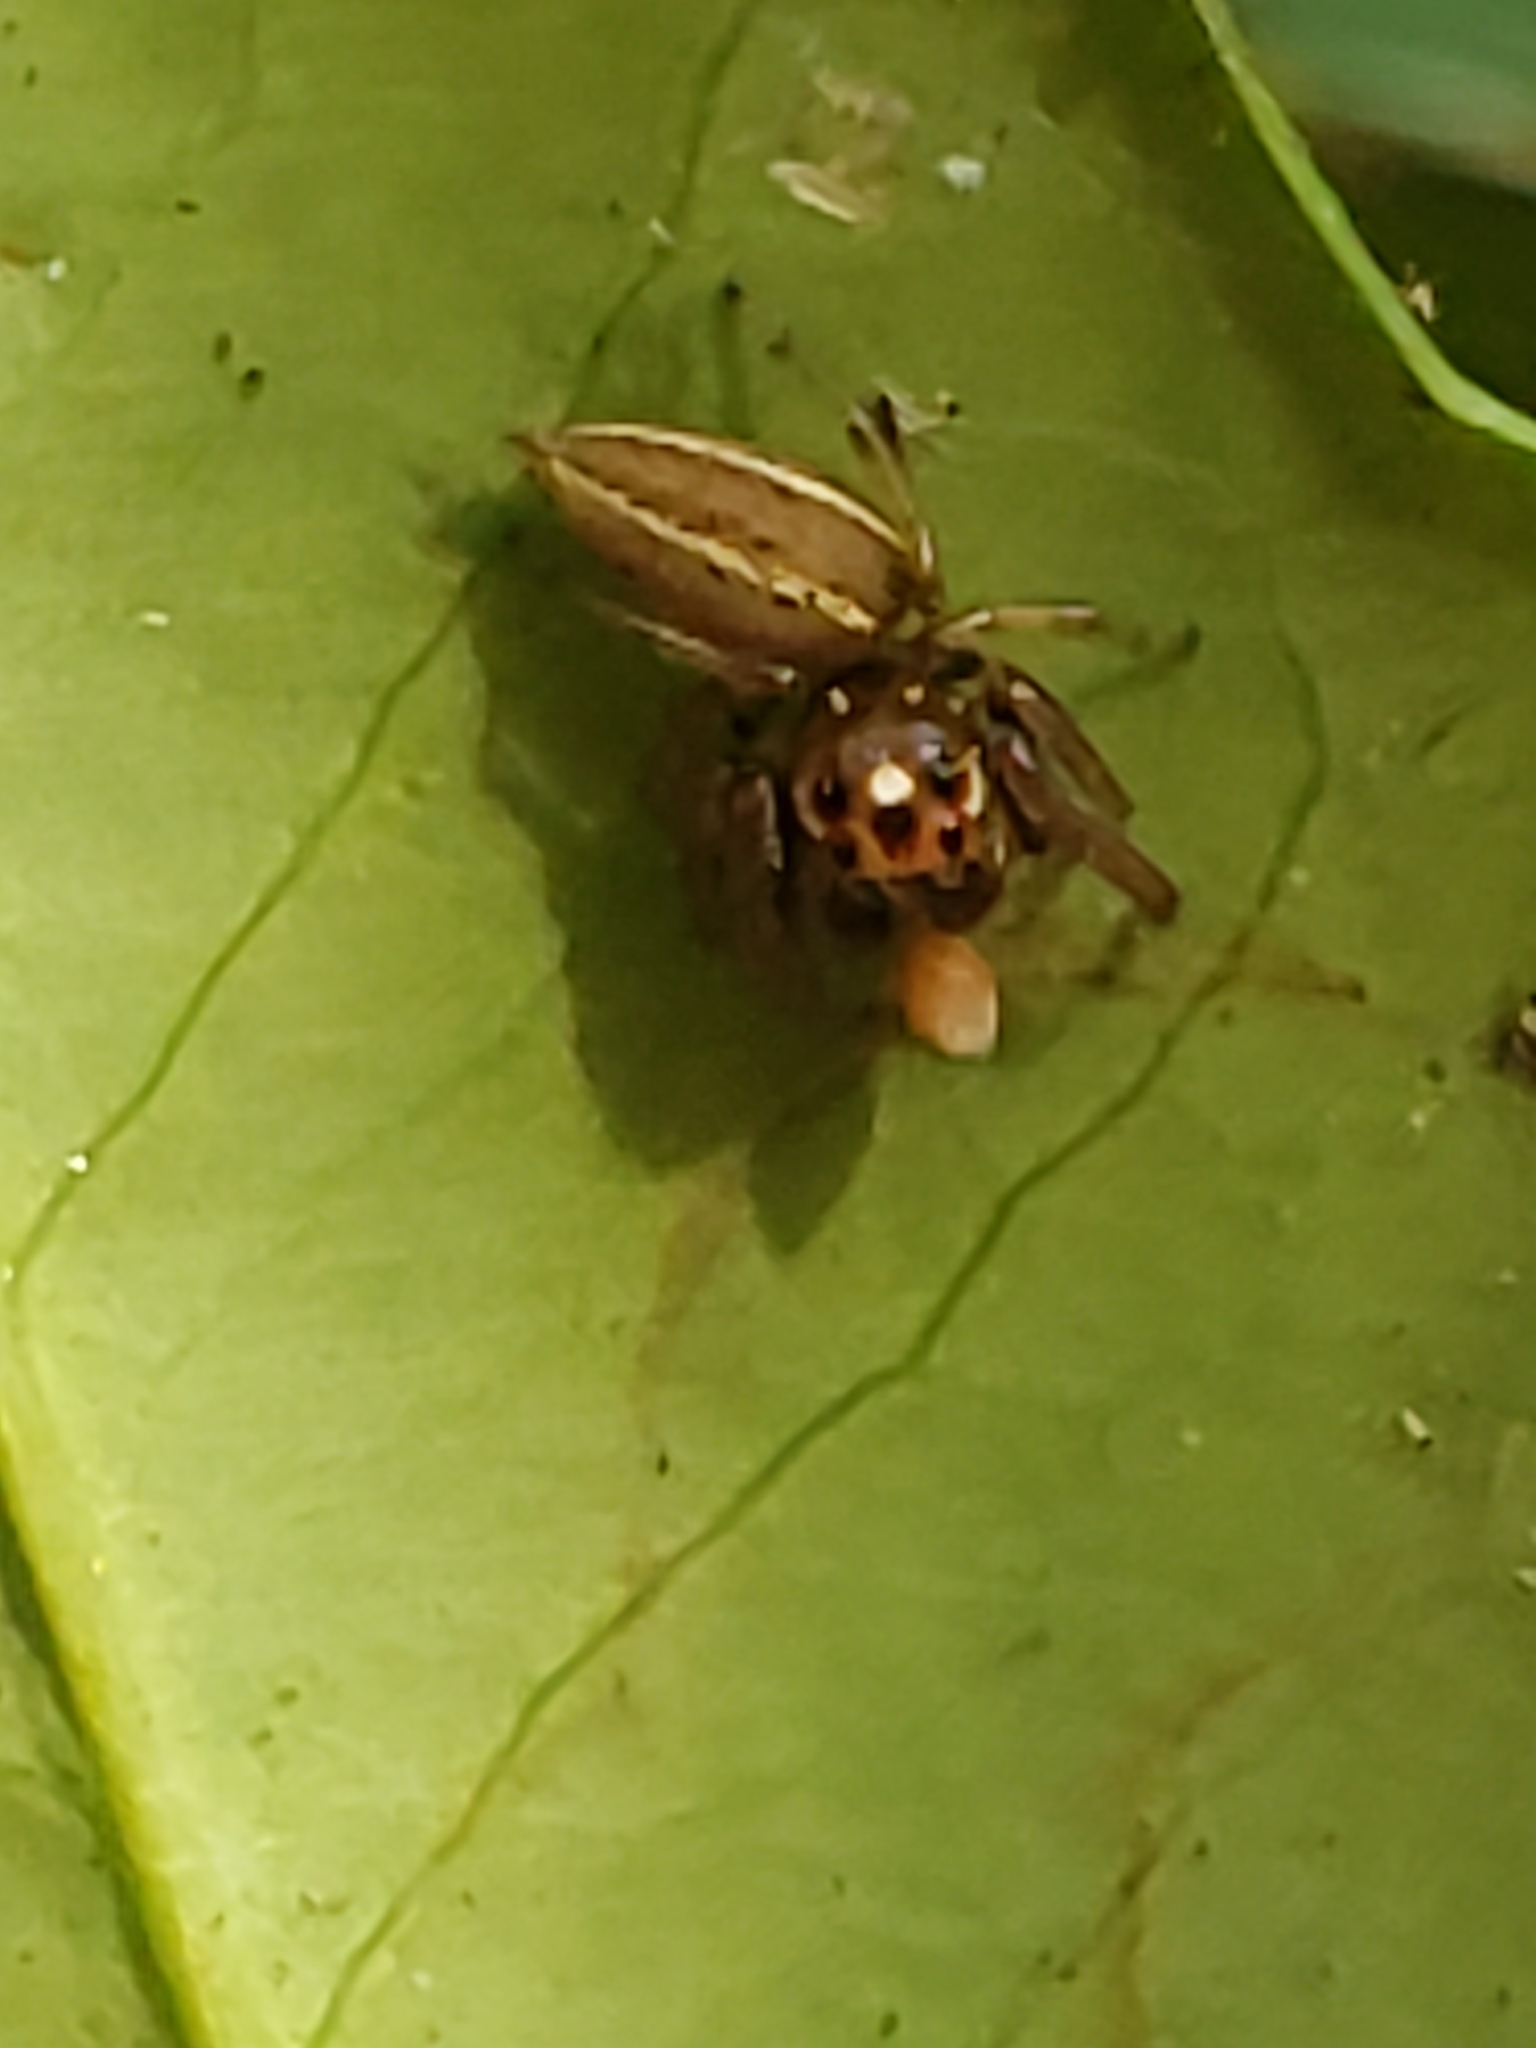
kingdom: Animalia
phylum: Arthropoda
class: Arachnida
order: Araneae
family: Salticidae
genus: Colonus
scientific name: Colonus sylvanus
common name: Jumping spiders
